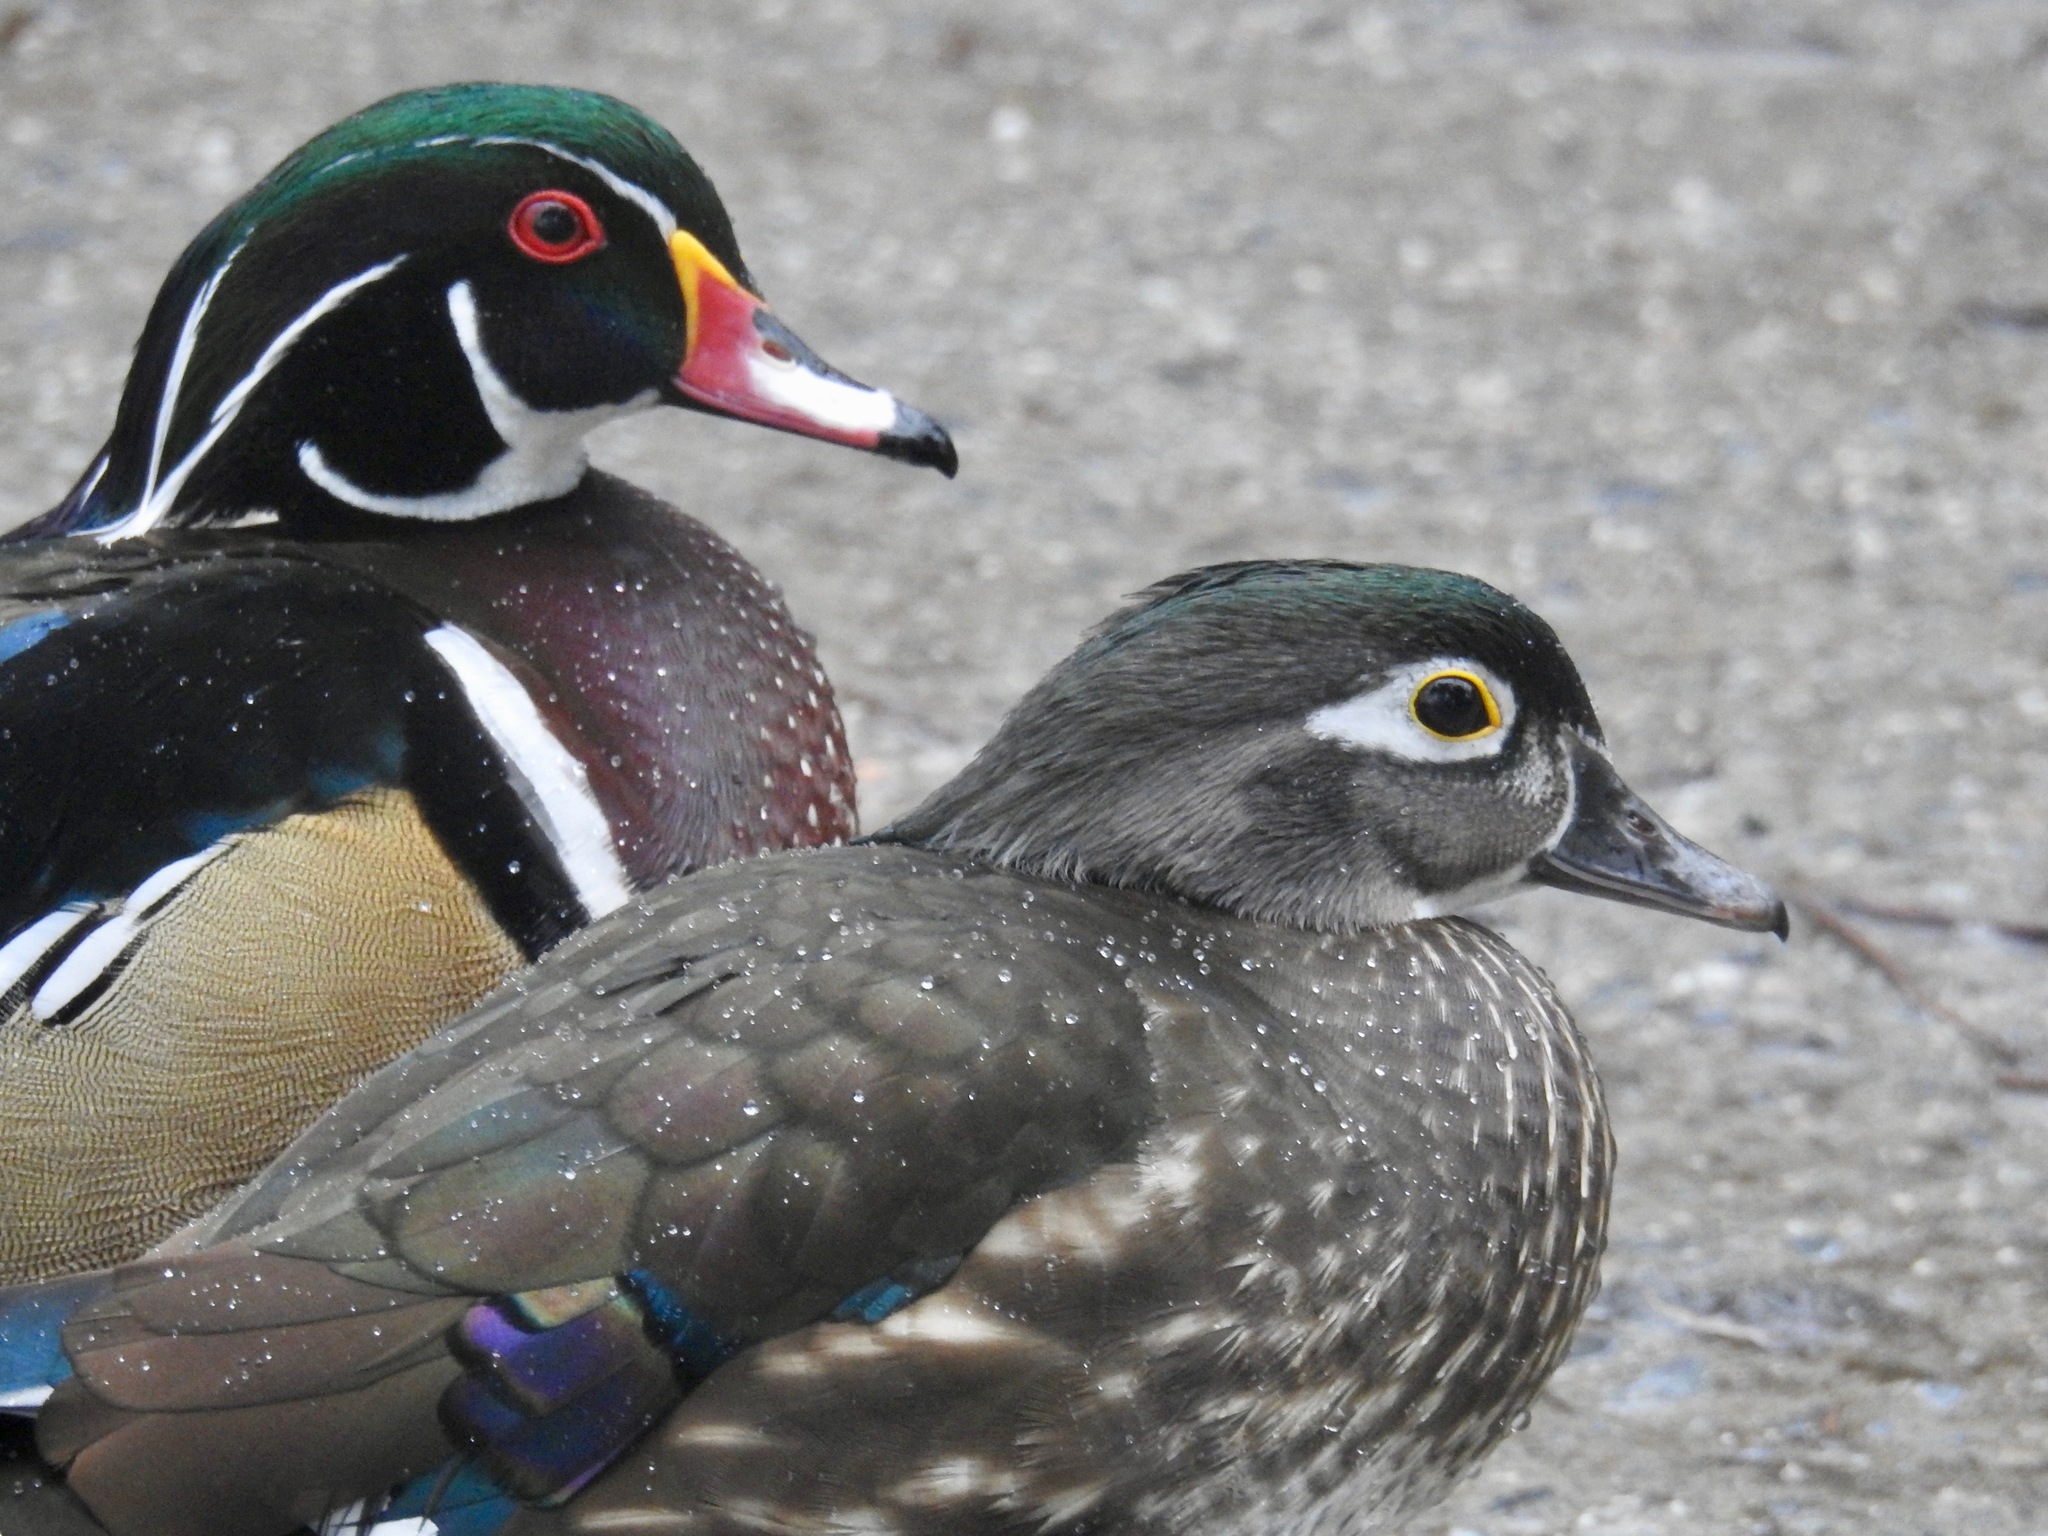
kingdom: Animalia
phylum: Chordata
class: Aves
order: Anseriformes
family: Anatidae
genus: Aix
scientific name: Aix sponsa
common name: Wood duck
